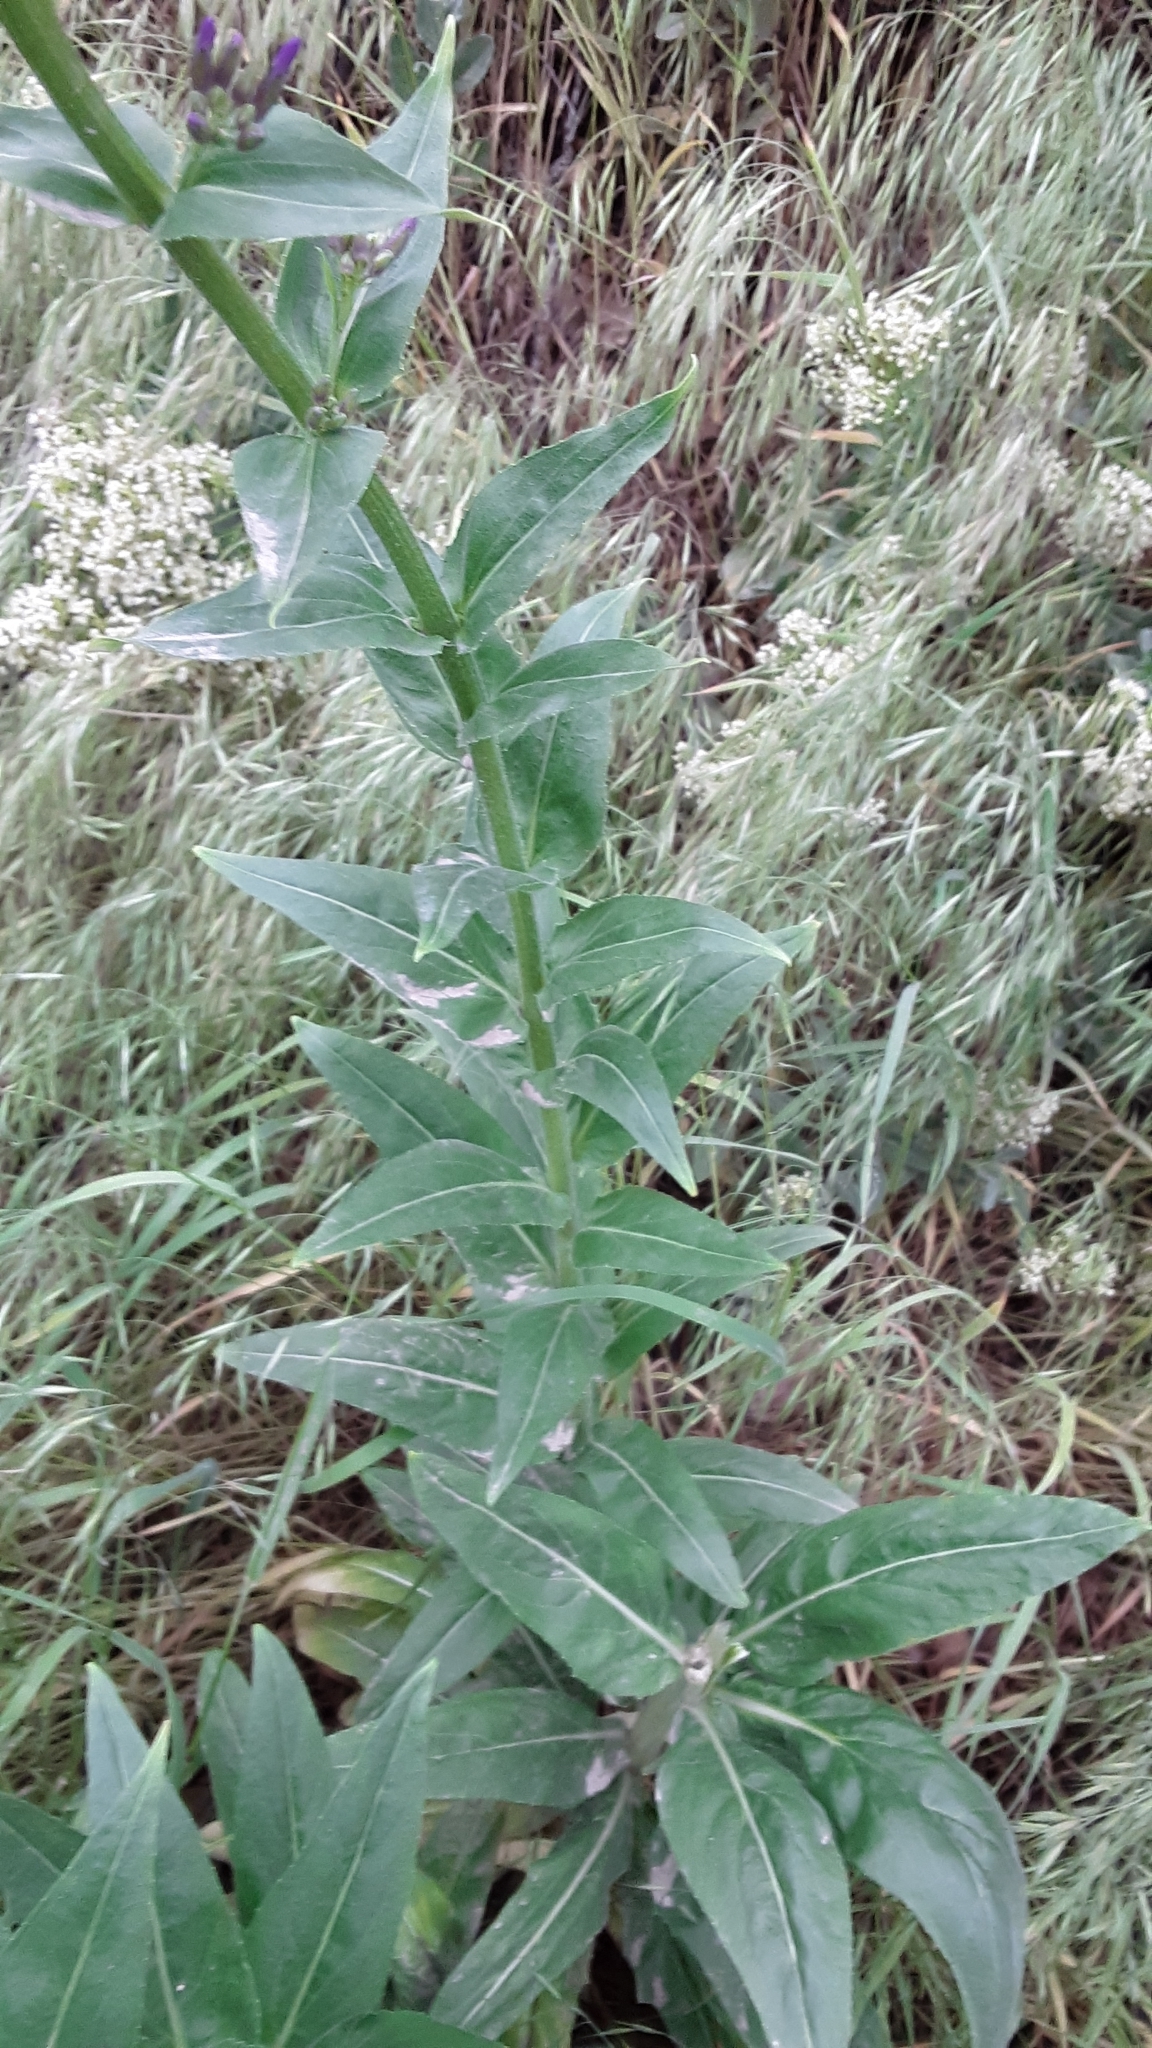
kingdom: Plantae
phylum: Tracheophyta
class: Magnoliopsida
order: Brassicales
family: Brassicaceae
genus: Hesperis
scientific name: Hesperis matronalis
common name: Dame's-violet
